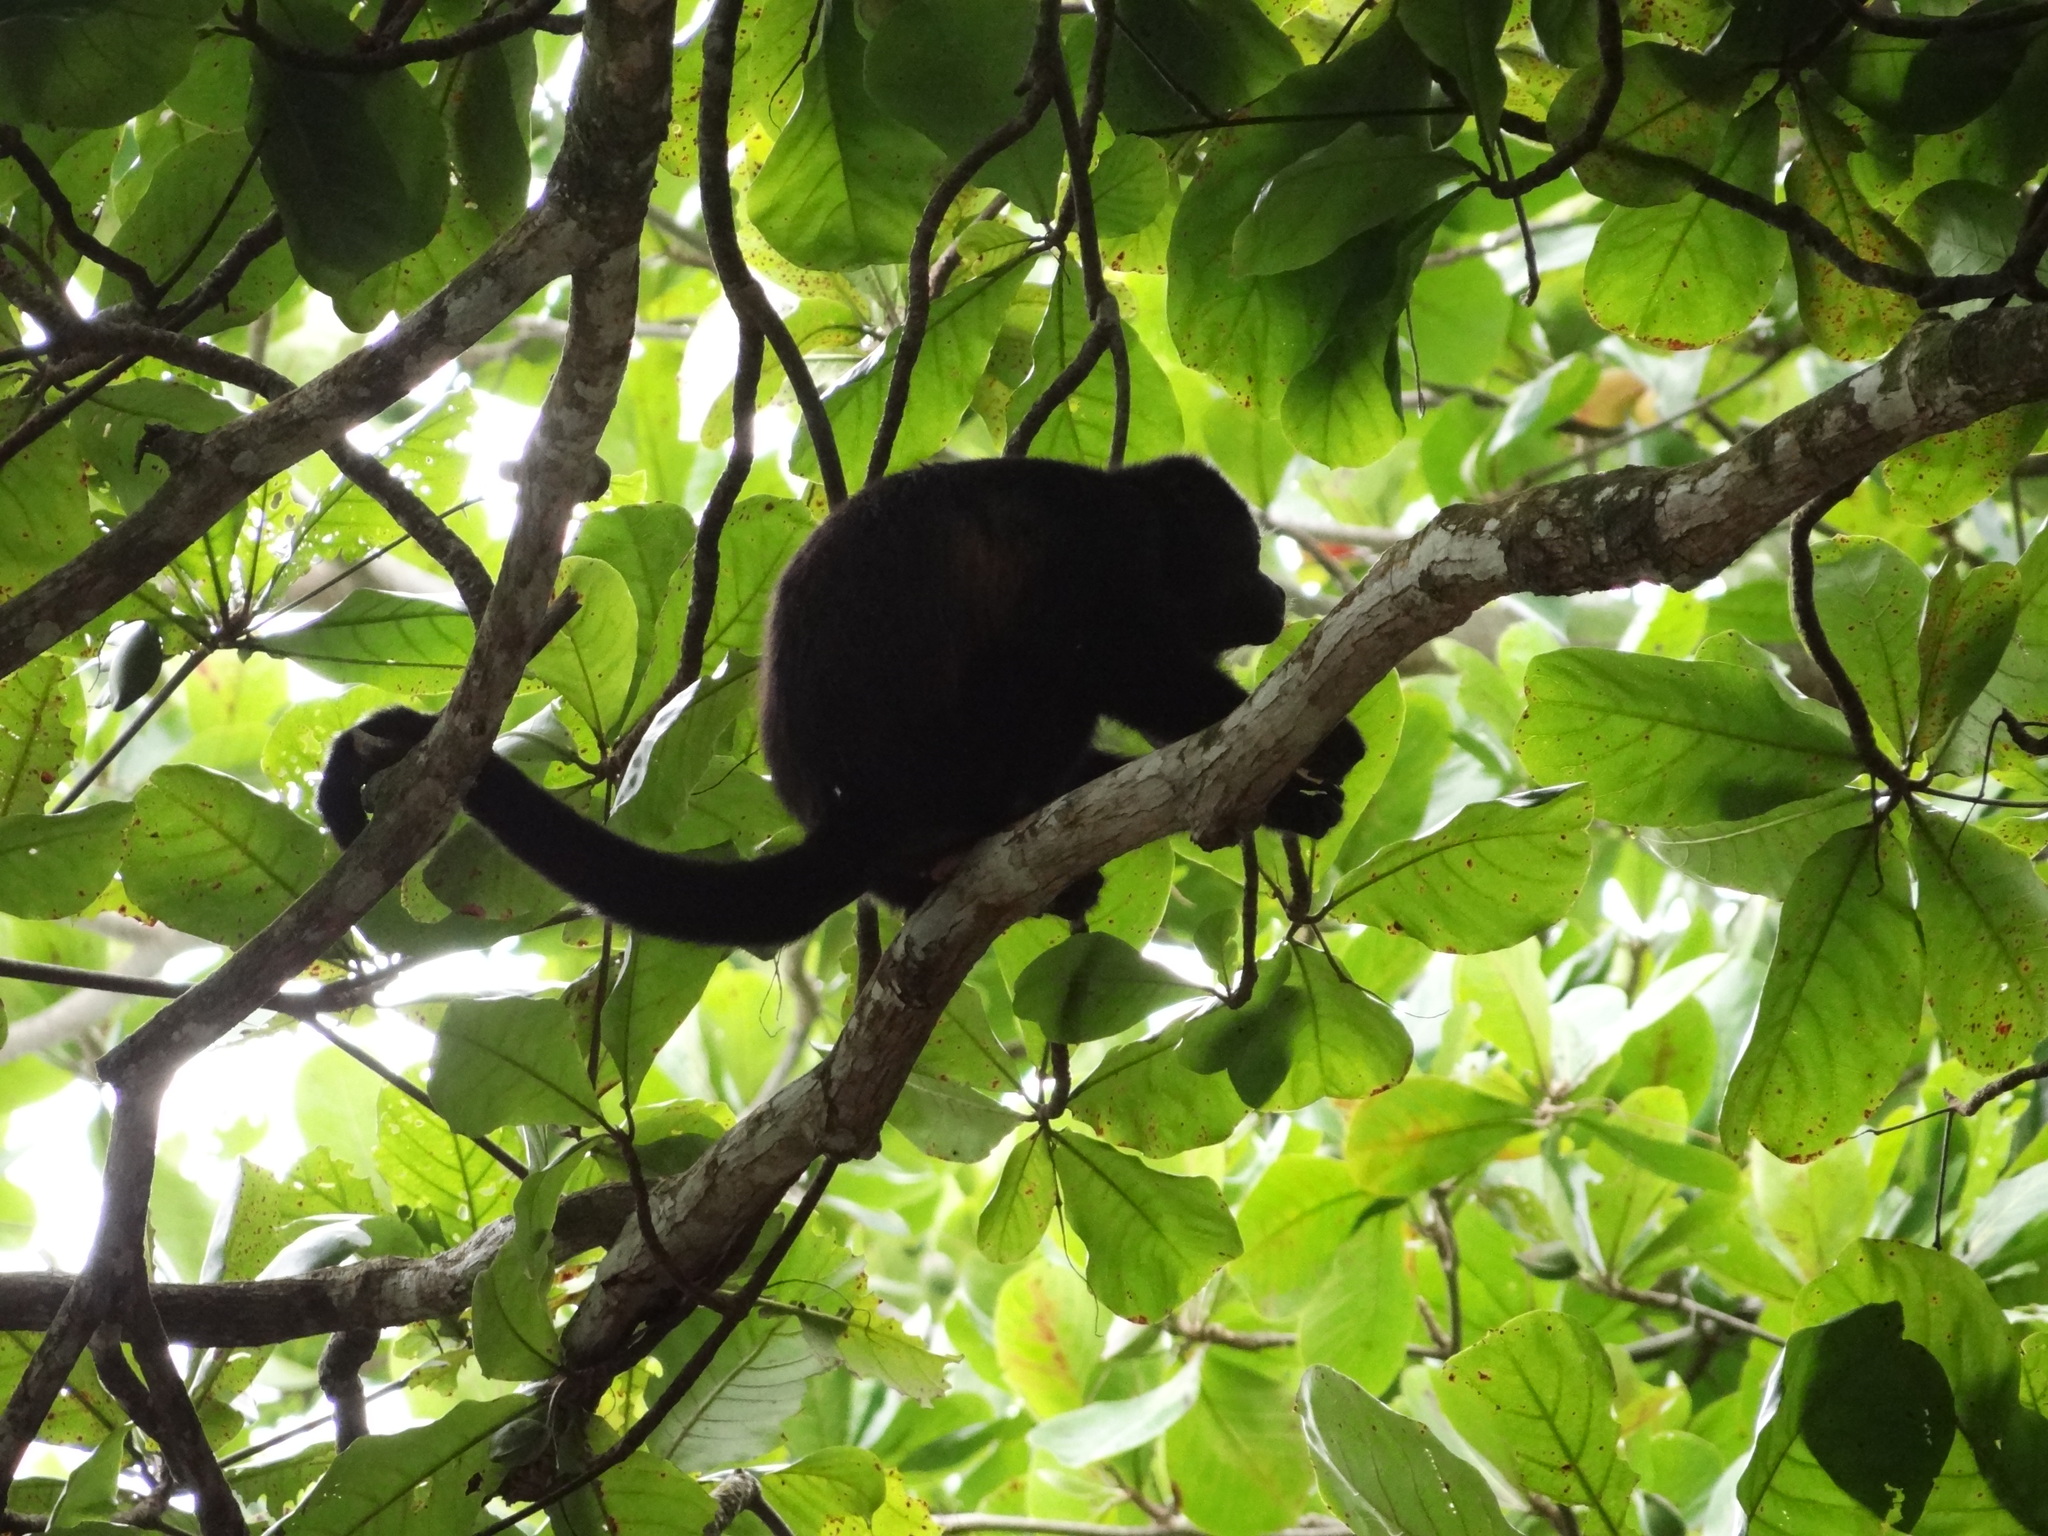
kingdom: Animalia
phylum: Chordata
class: Mammalia
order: Primates
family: Atelidae
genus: Alouatta
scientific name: Alouatta palliata
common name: Mantled howler
